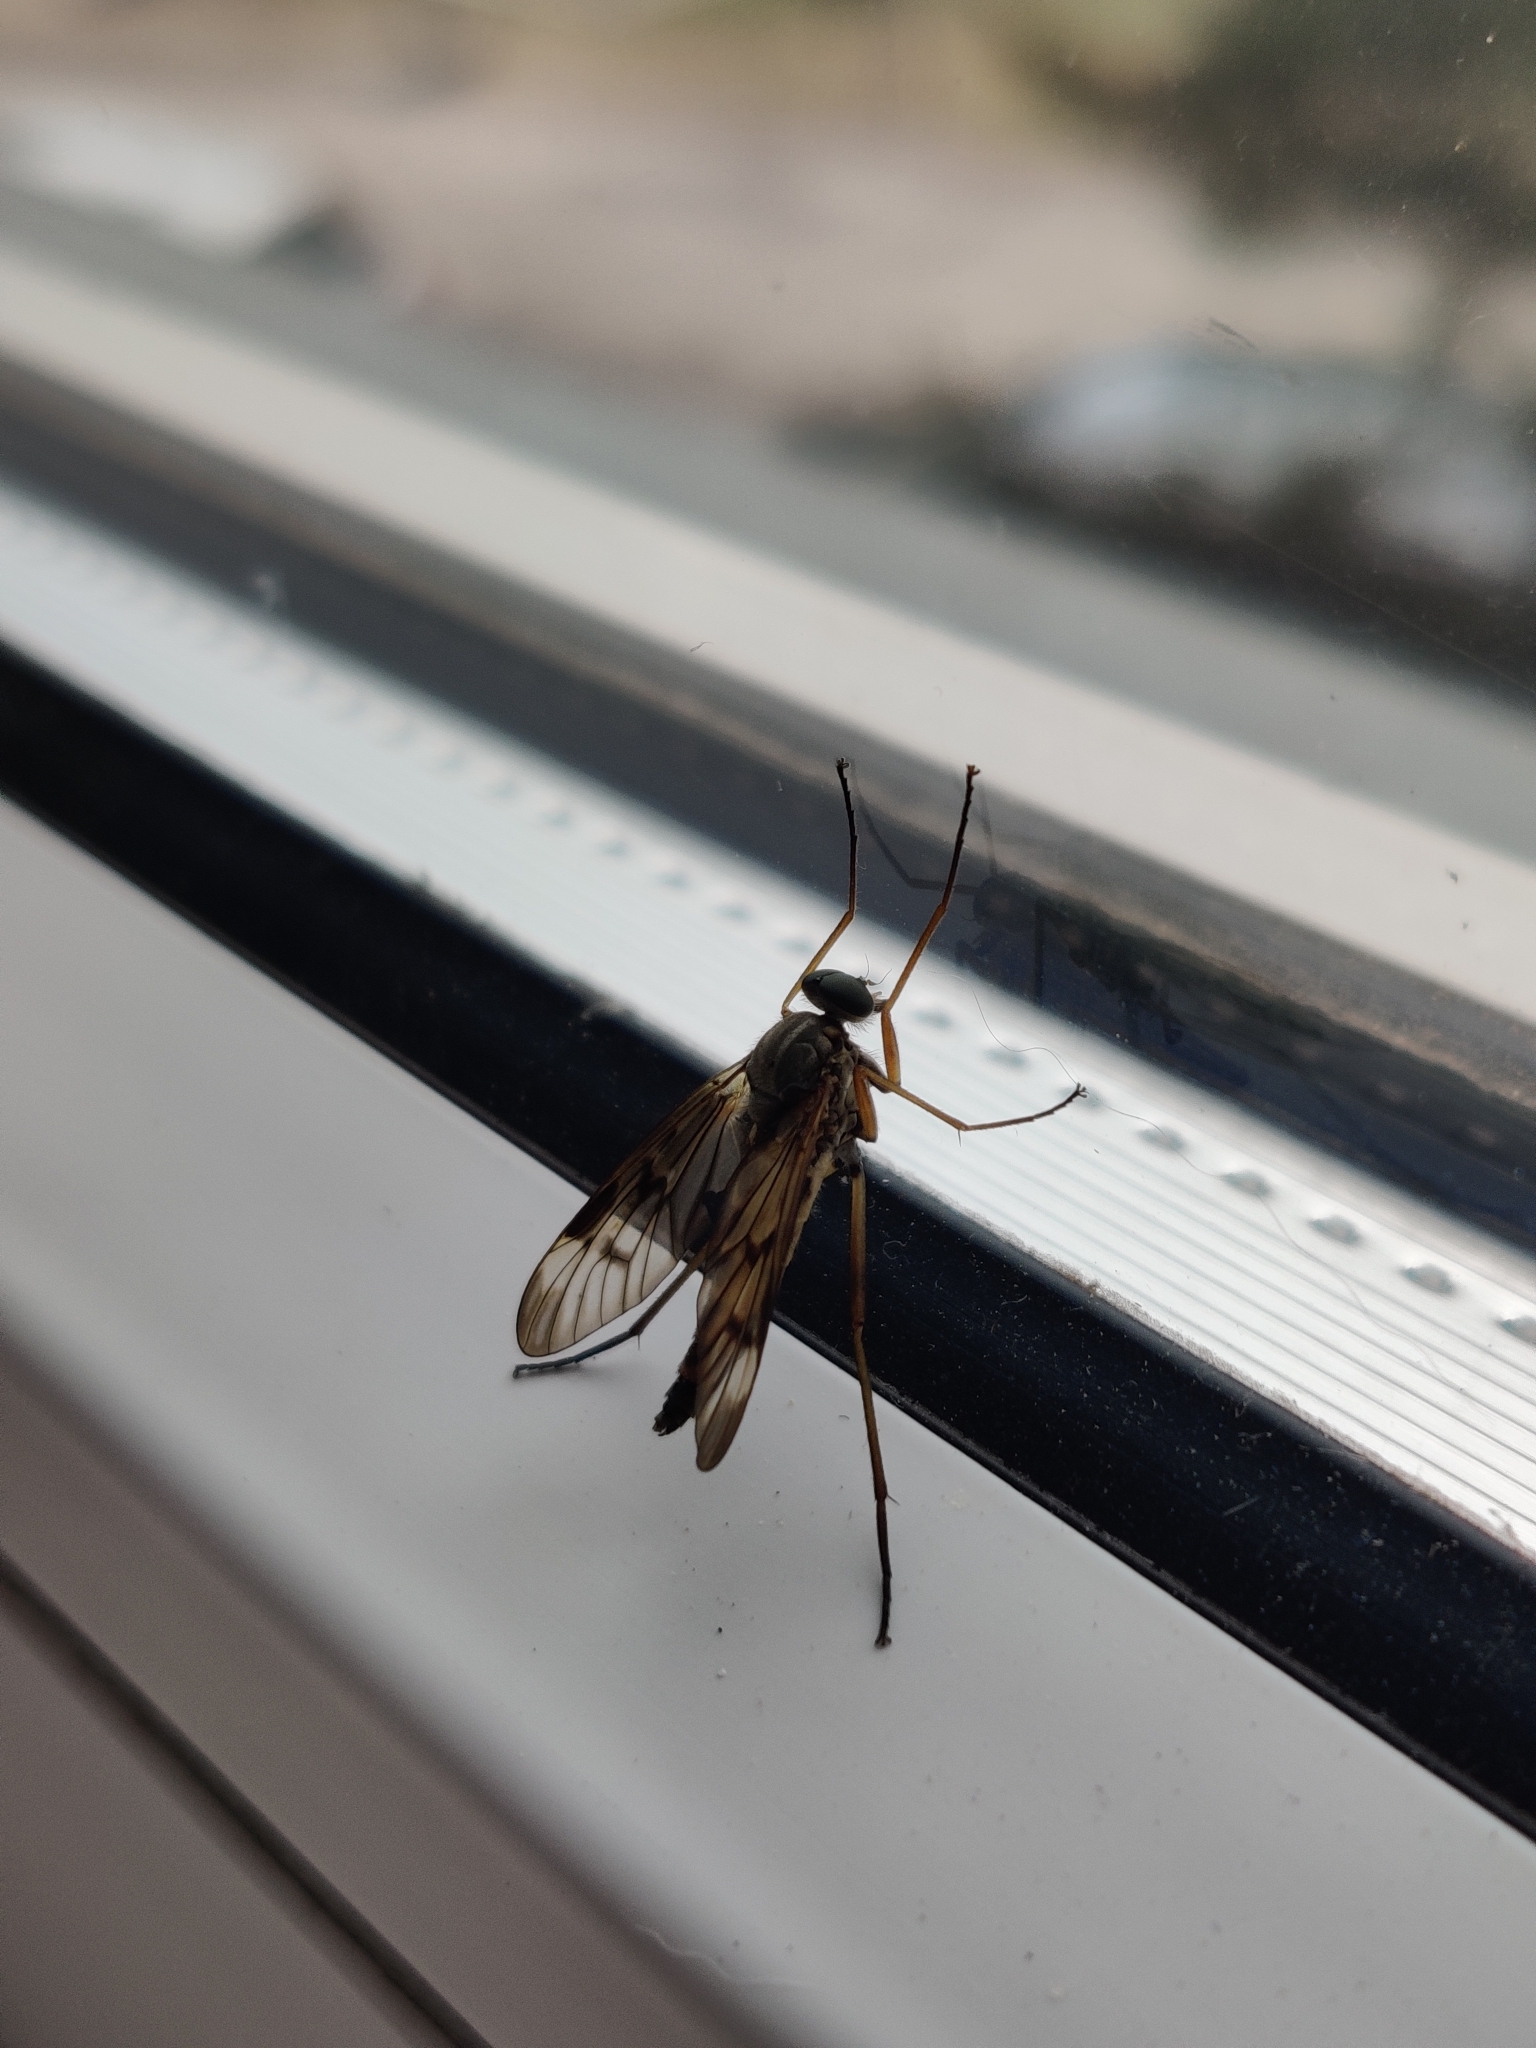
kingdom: Animalia
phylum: Arthropoda
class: Insecta
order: Diptera
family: Rhagionidae
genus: Rhagio
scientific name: Rhagio scolopacea
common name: Downlooker snipefly
